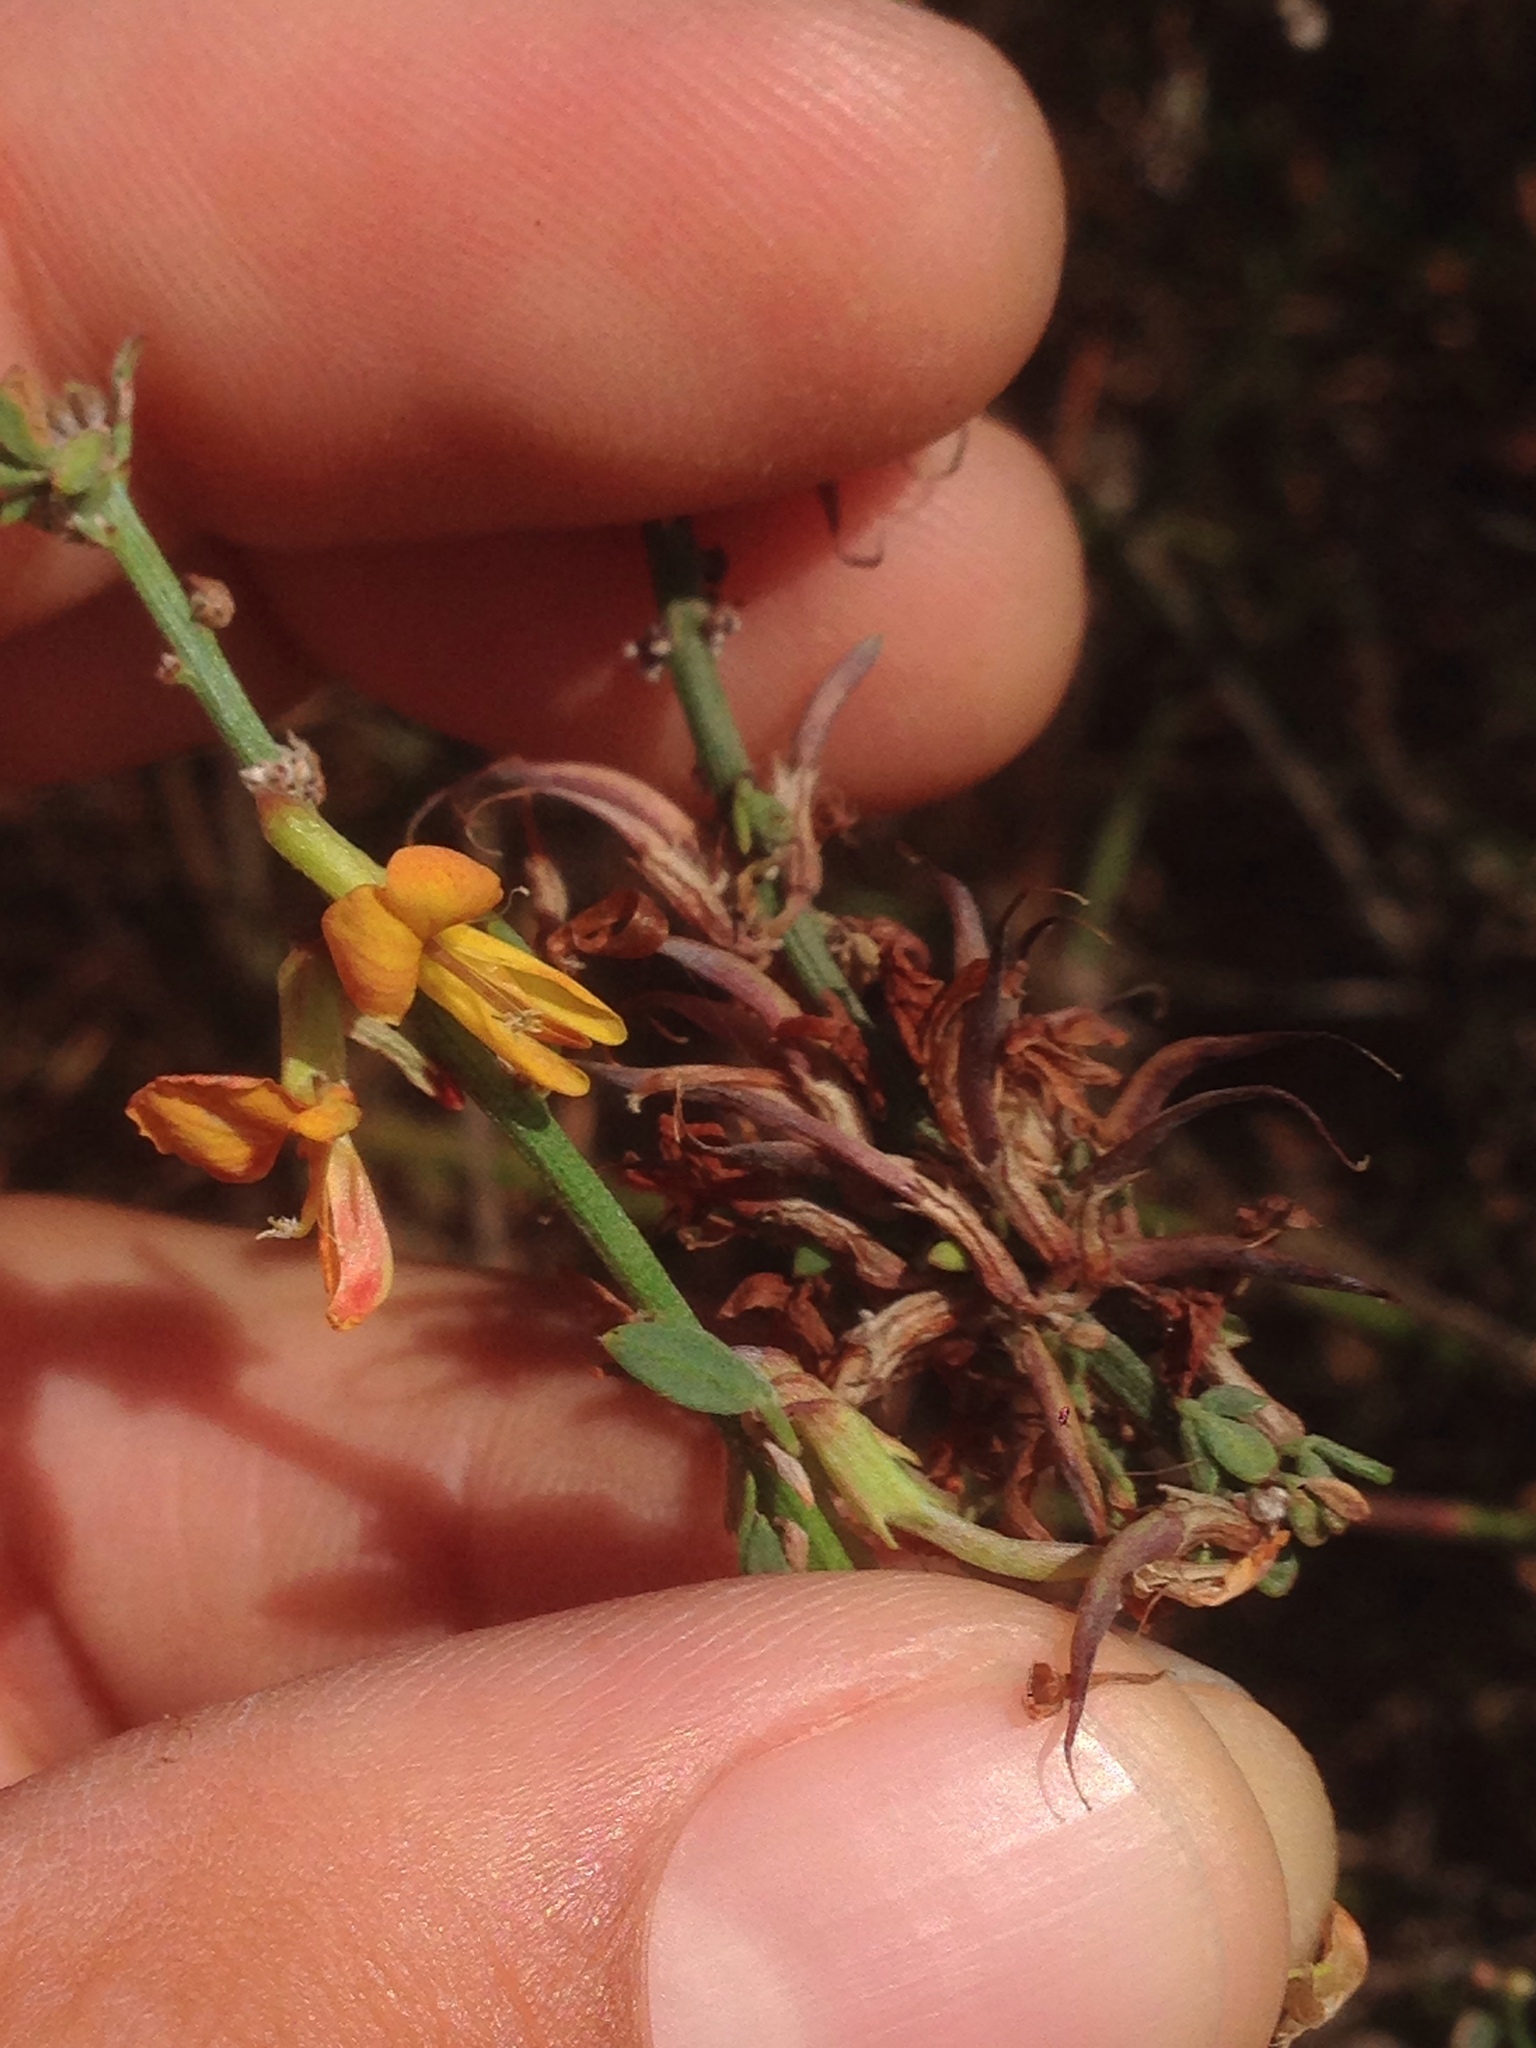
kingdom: Plantae
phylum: Tracheophyta
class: Magnoliopsida
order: Fabales
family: Fabaceae
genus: Acmispon
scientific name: Acmispon glaber
